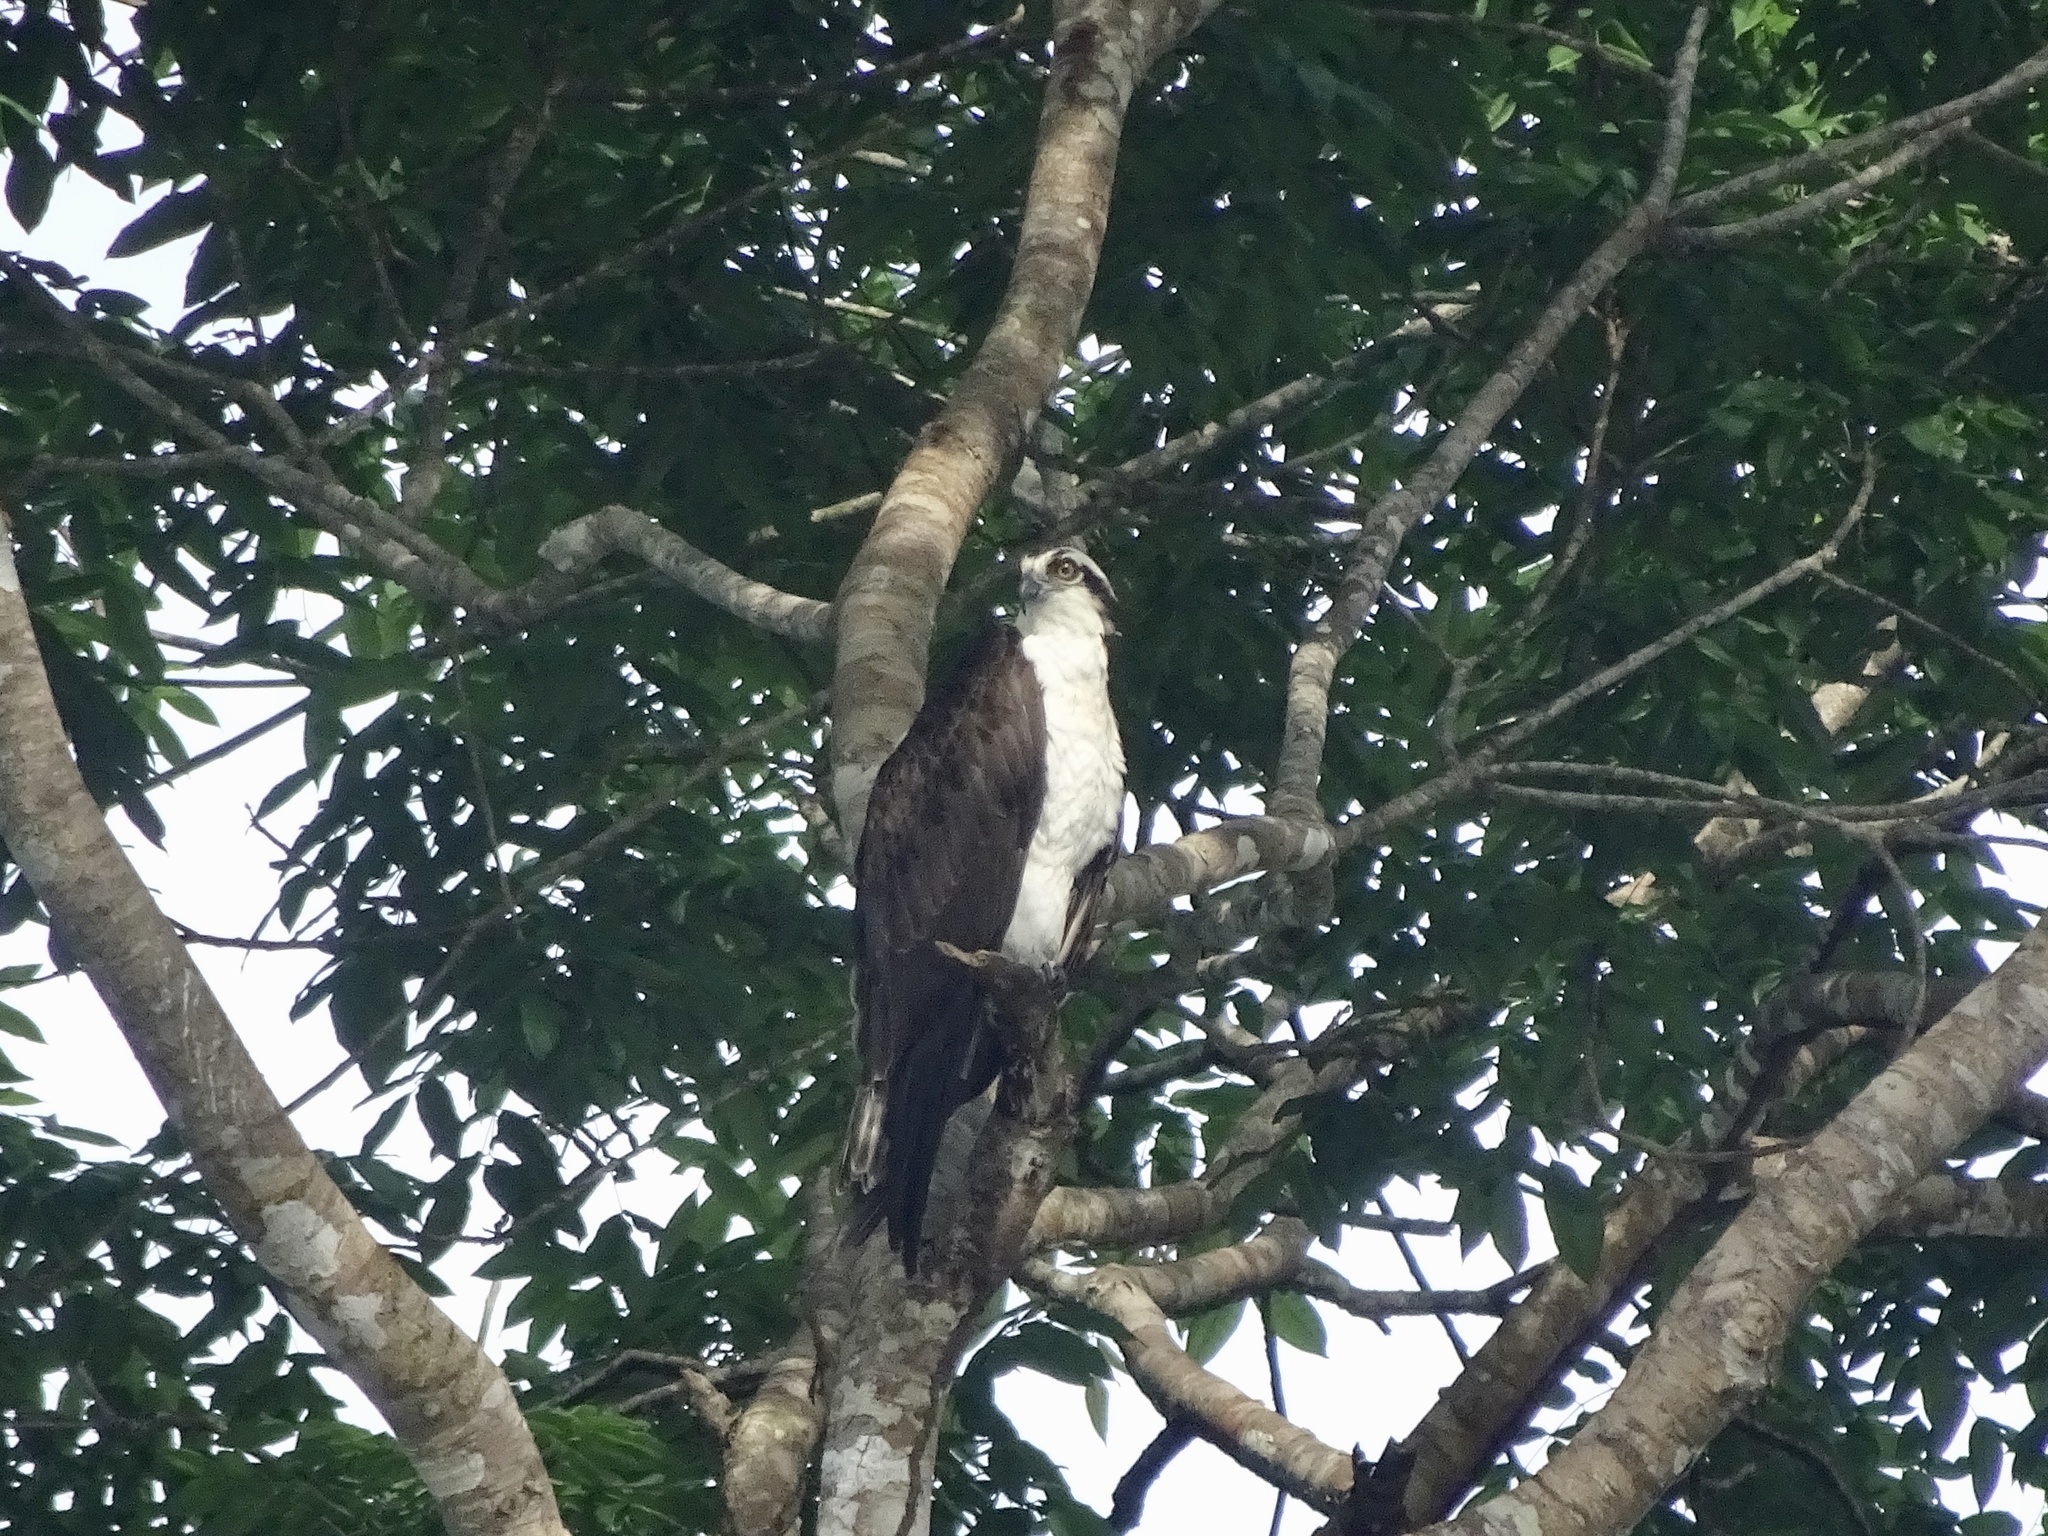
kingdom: Animalia
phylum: Chordata
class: Aves
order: Accipitriformes
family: Pandionidae
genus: Pandion
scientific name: Pandion haliaetus
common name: Osprey
